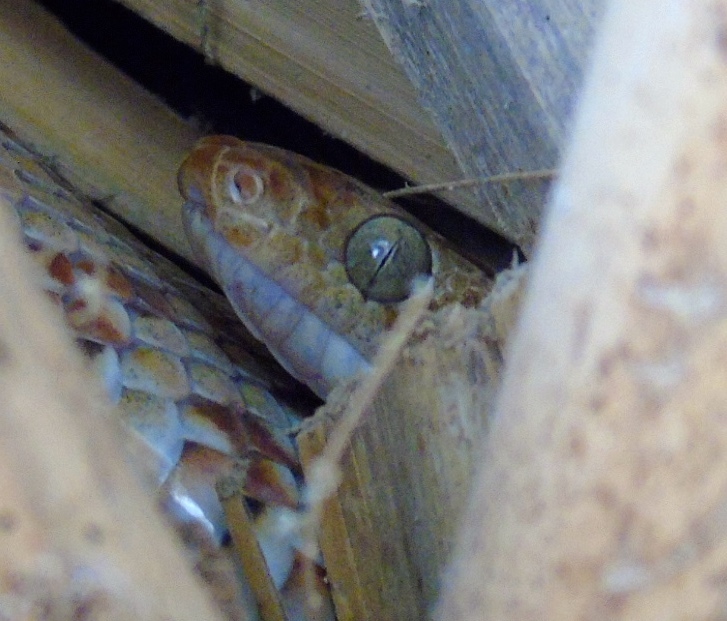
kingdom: Animalia
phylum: Chordata
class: Squamata
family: Colubridae
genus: Trimorphodon
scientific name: Trimorphodon paucimaculatus
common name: Sinaloan lyresnake
